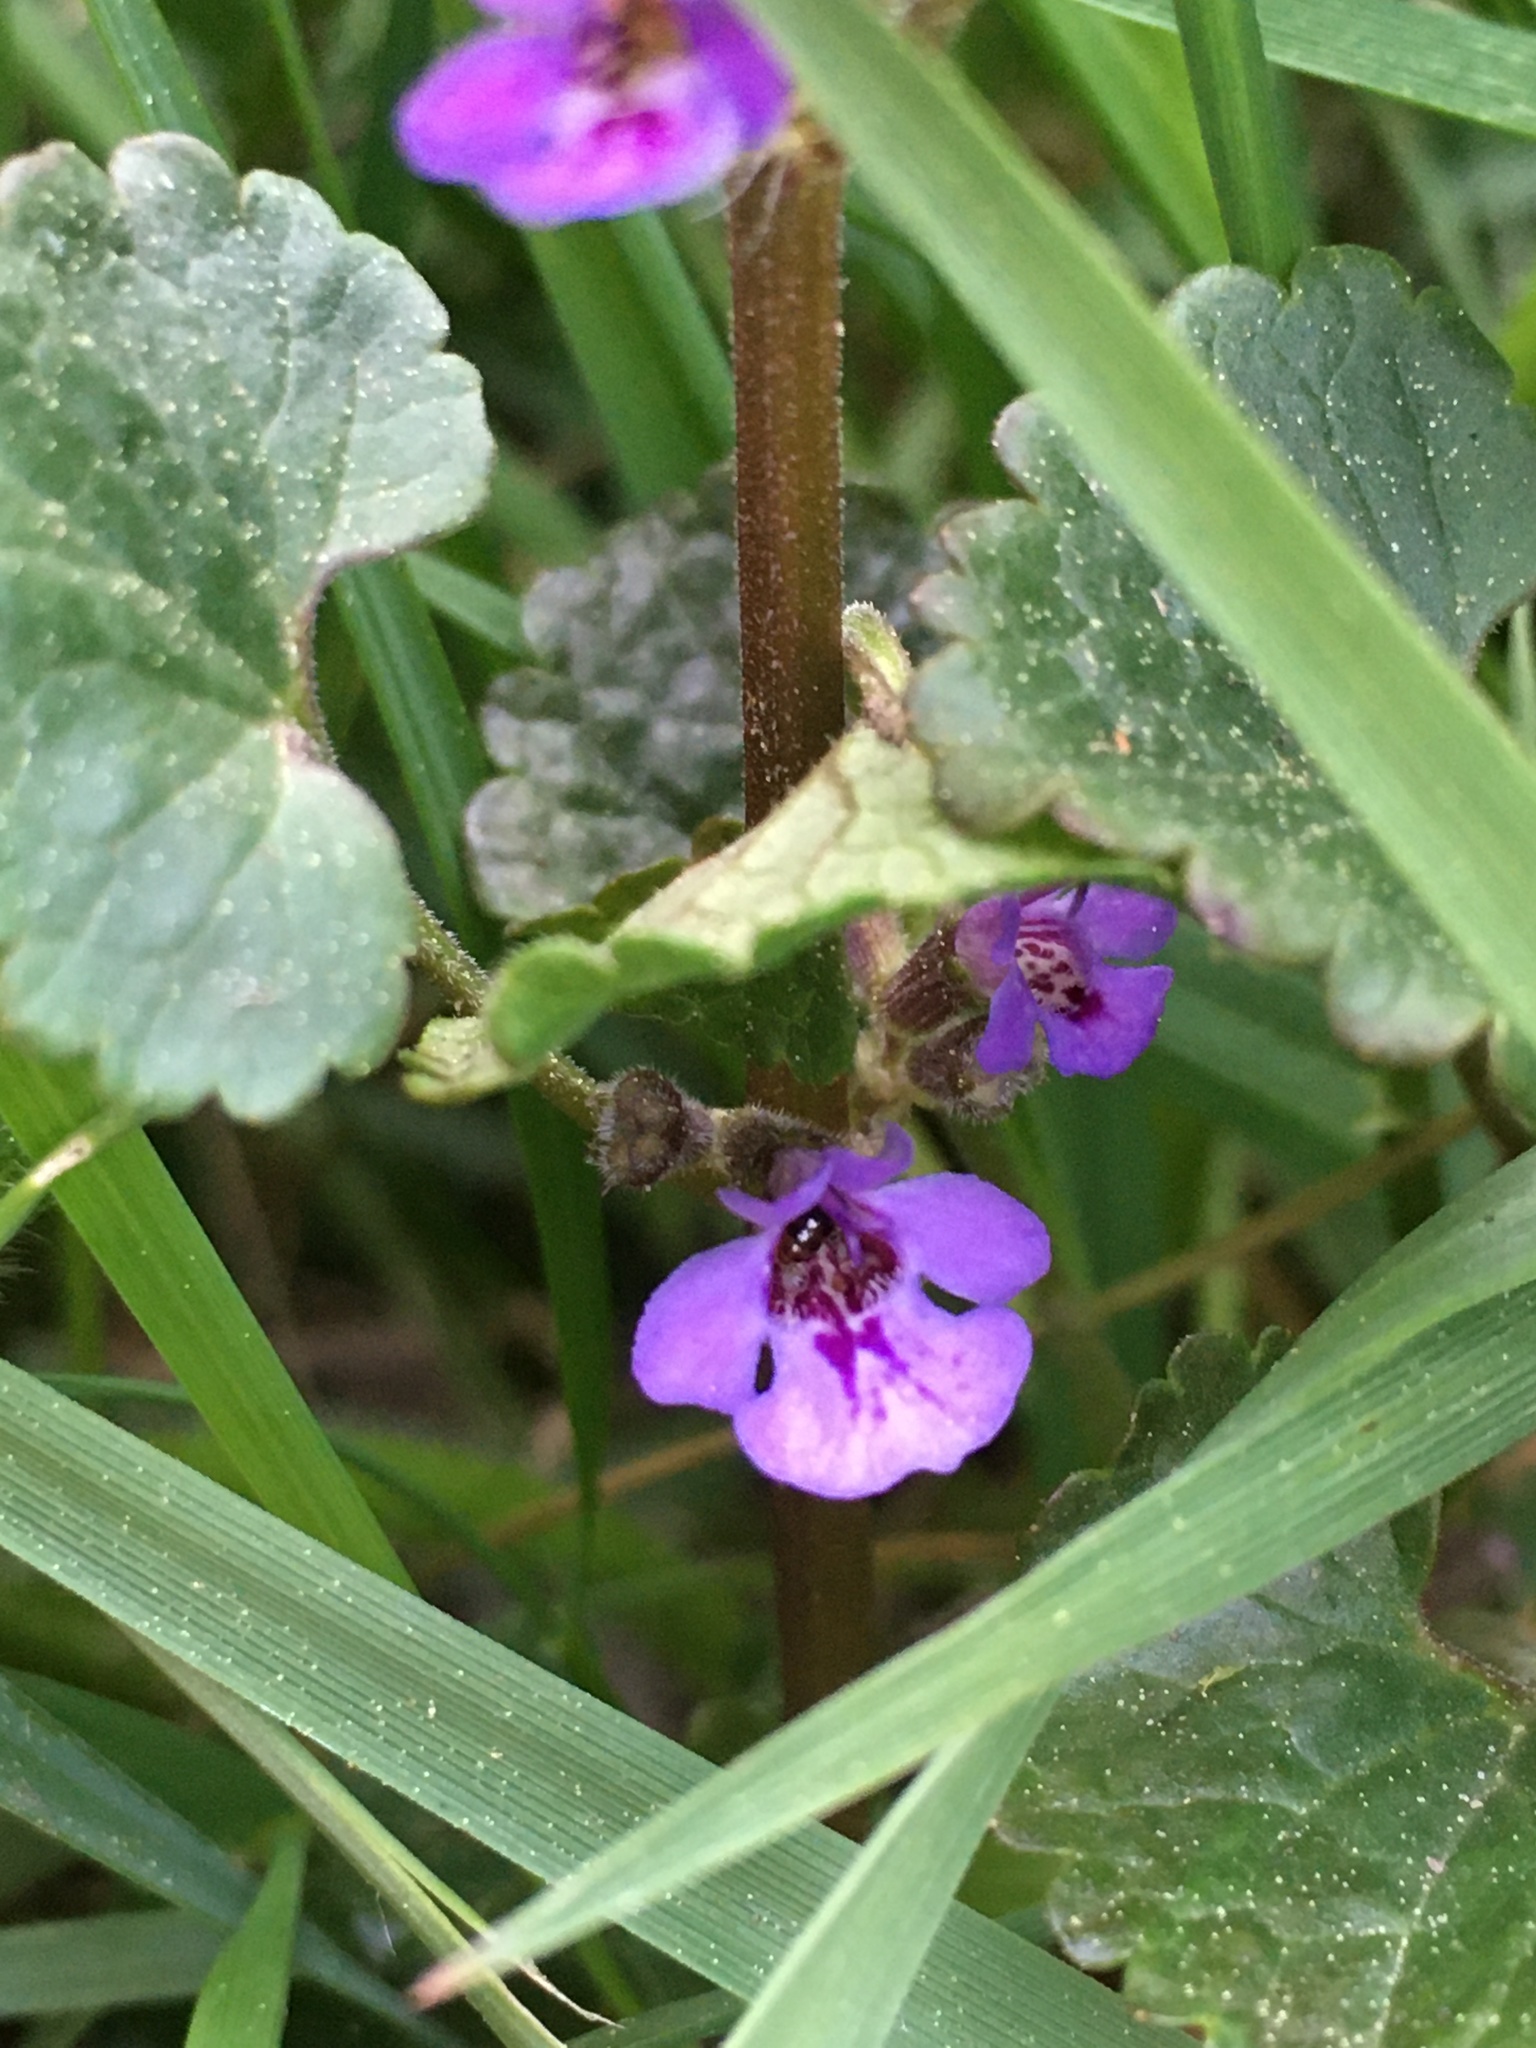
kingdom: Plantae
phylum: Tracheophyta
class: Magnoliopsida
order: Lamiales
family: Lamiaceae
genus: Glechoma
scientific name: Glechoma hederacea
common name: Ground ivy
